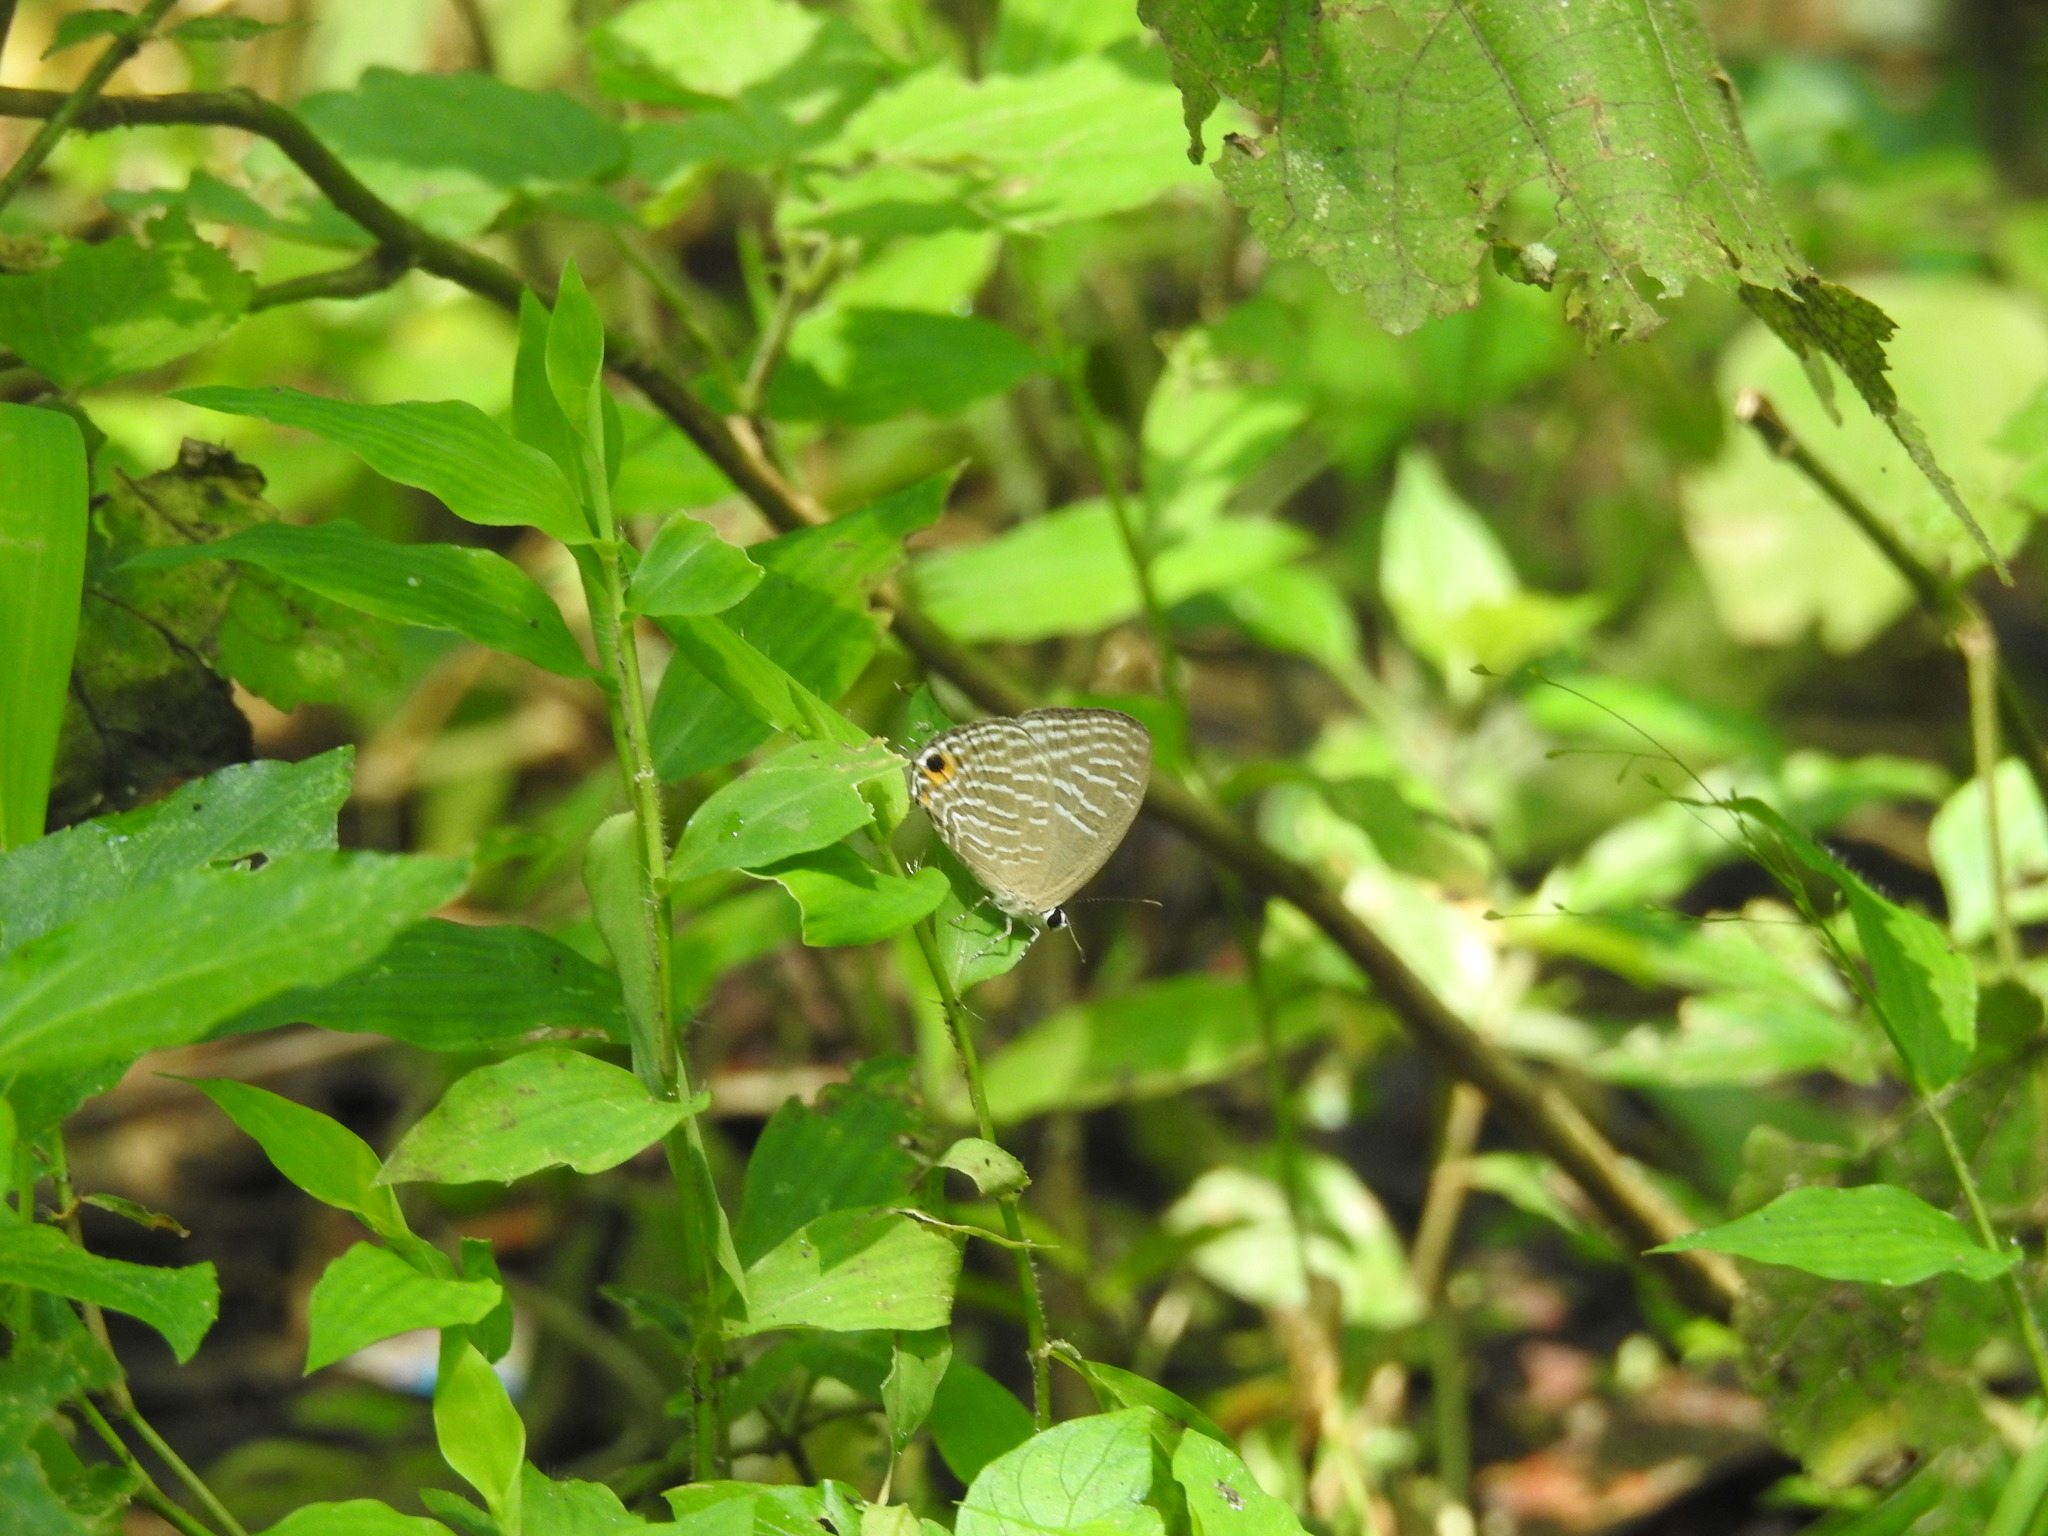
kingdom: Animalia
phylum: Arthropoda
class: Insecta
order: Lepidoptera
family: Lycaenidae
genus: Jamides
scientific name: Jamides alecto
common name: Metallic cerulean
